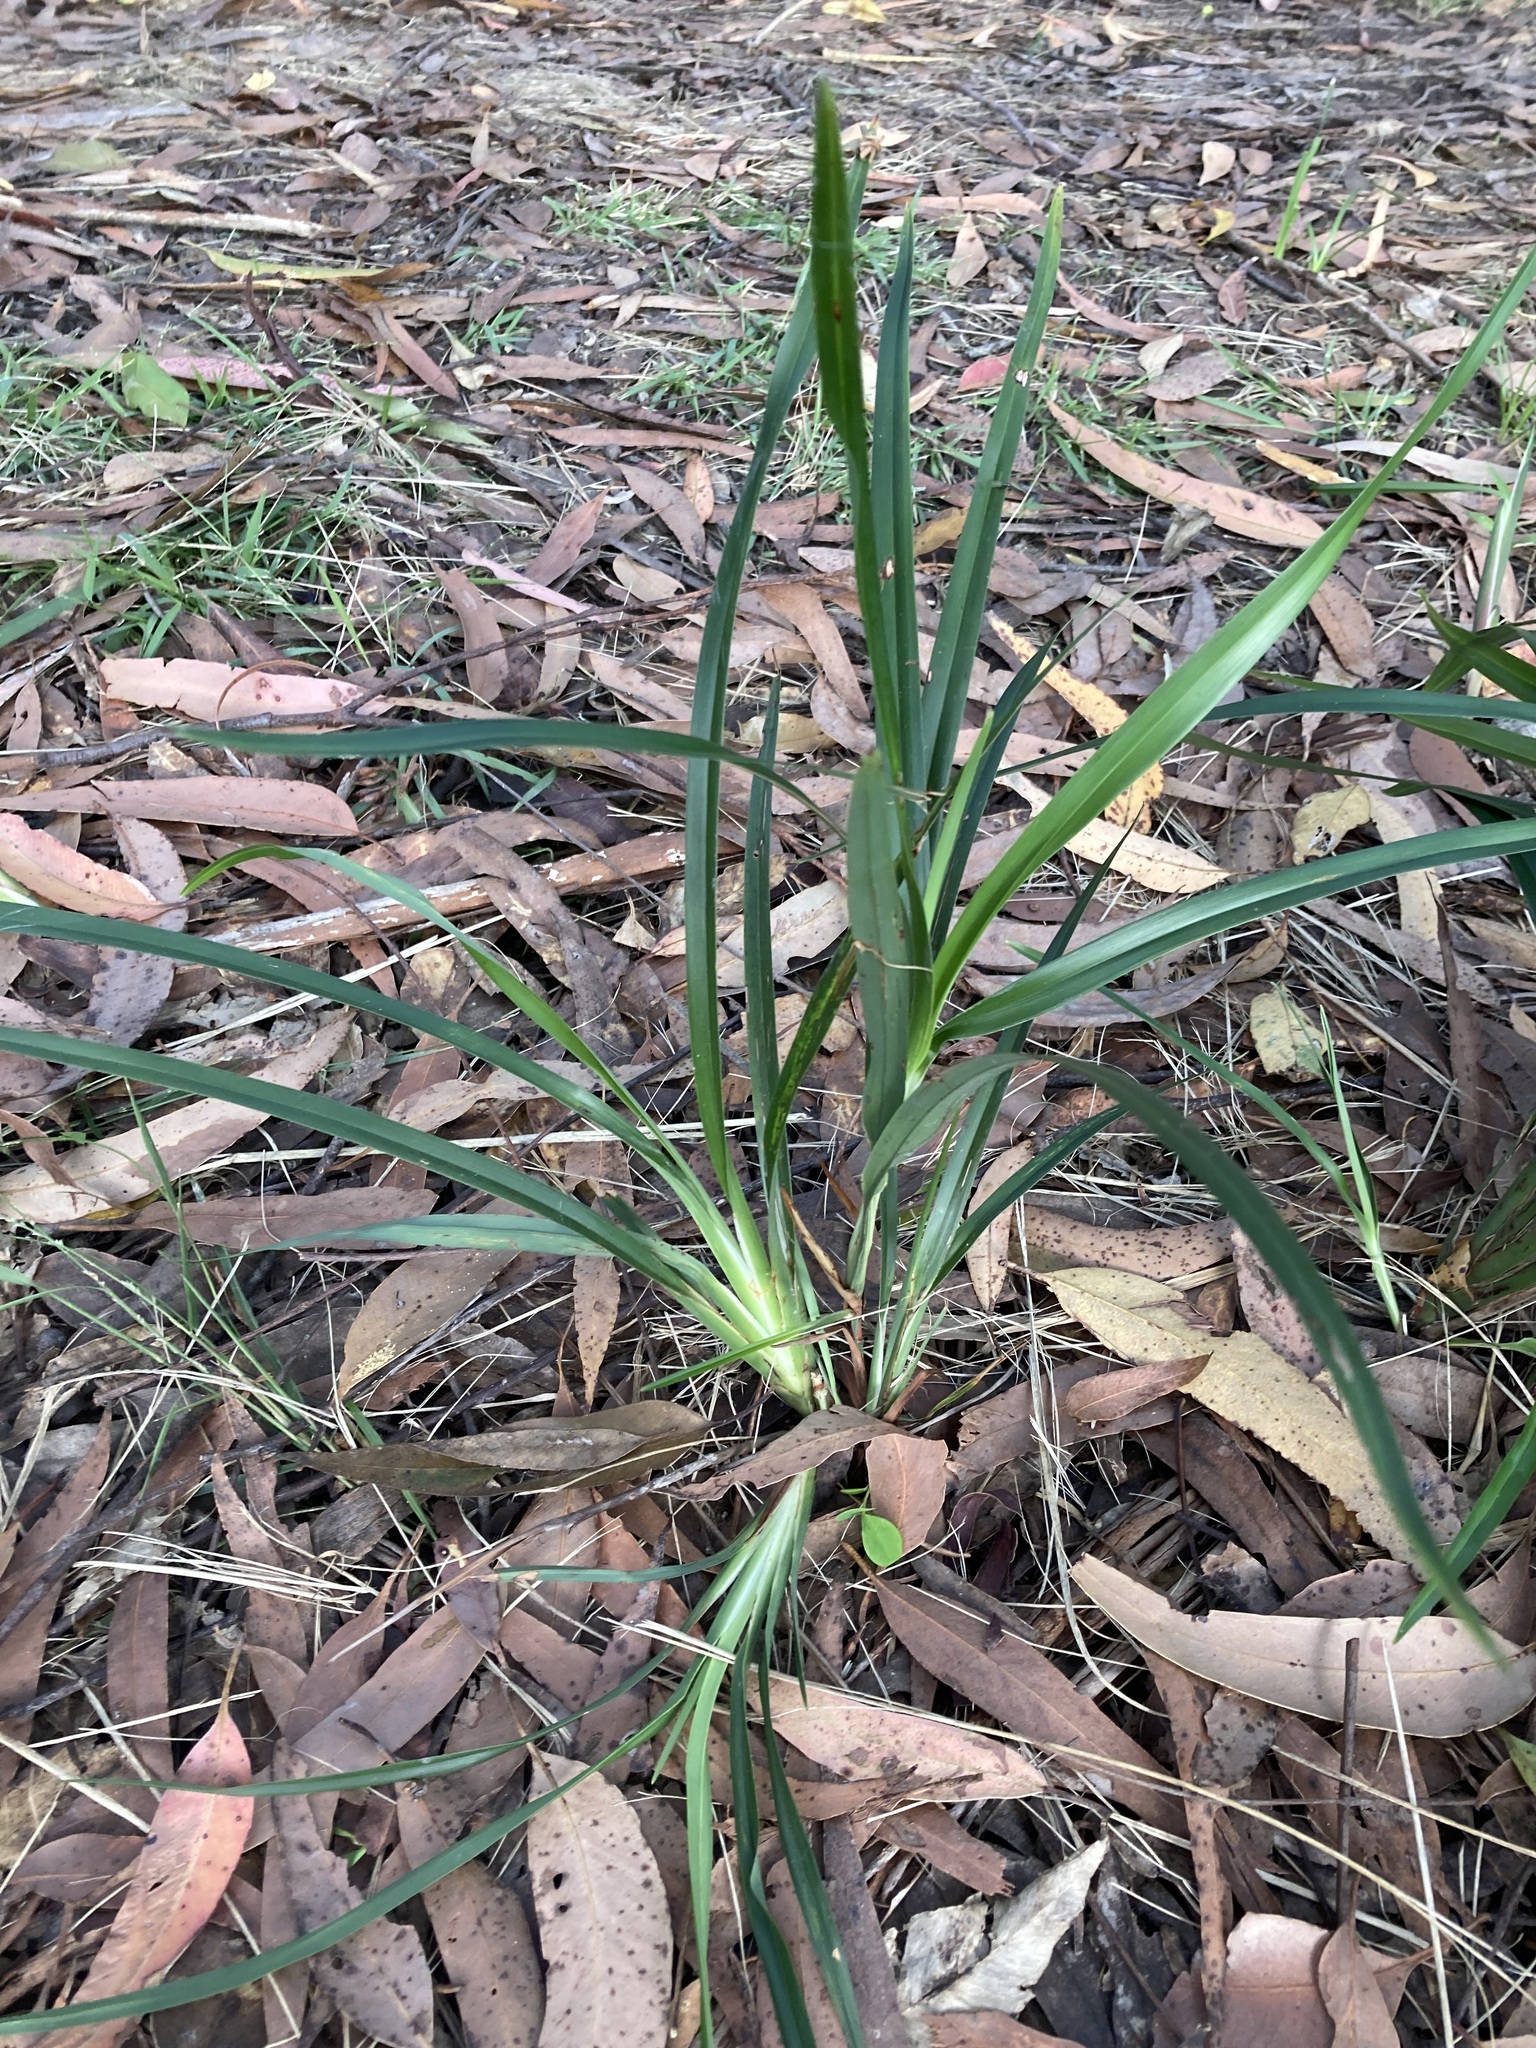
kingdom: Plantae
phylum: Tracheophyta
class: Liliopsida
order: Asparagales
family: Asphodelaceae
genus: Dianella
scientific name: Dianella caerulea
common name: Blue flax-lily
